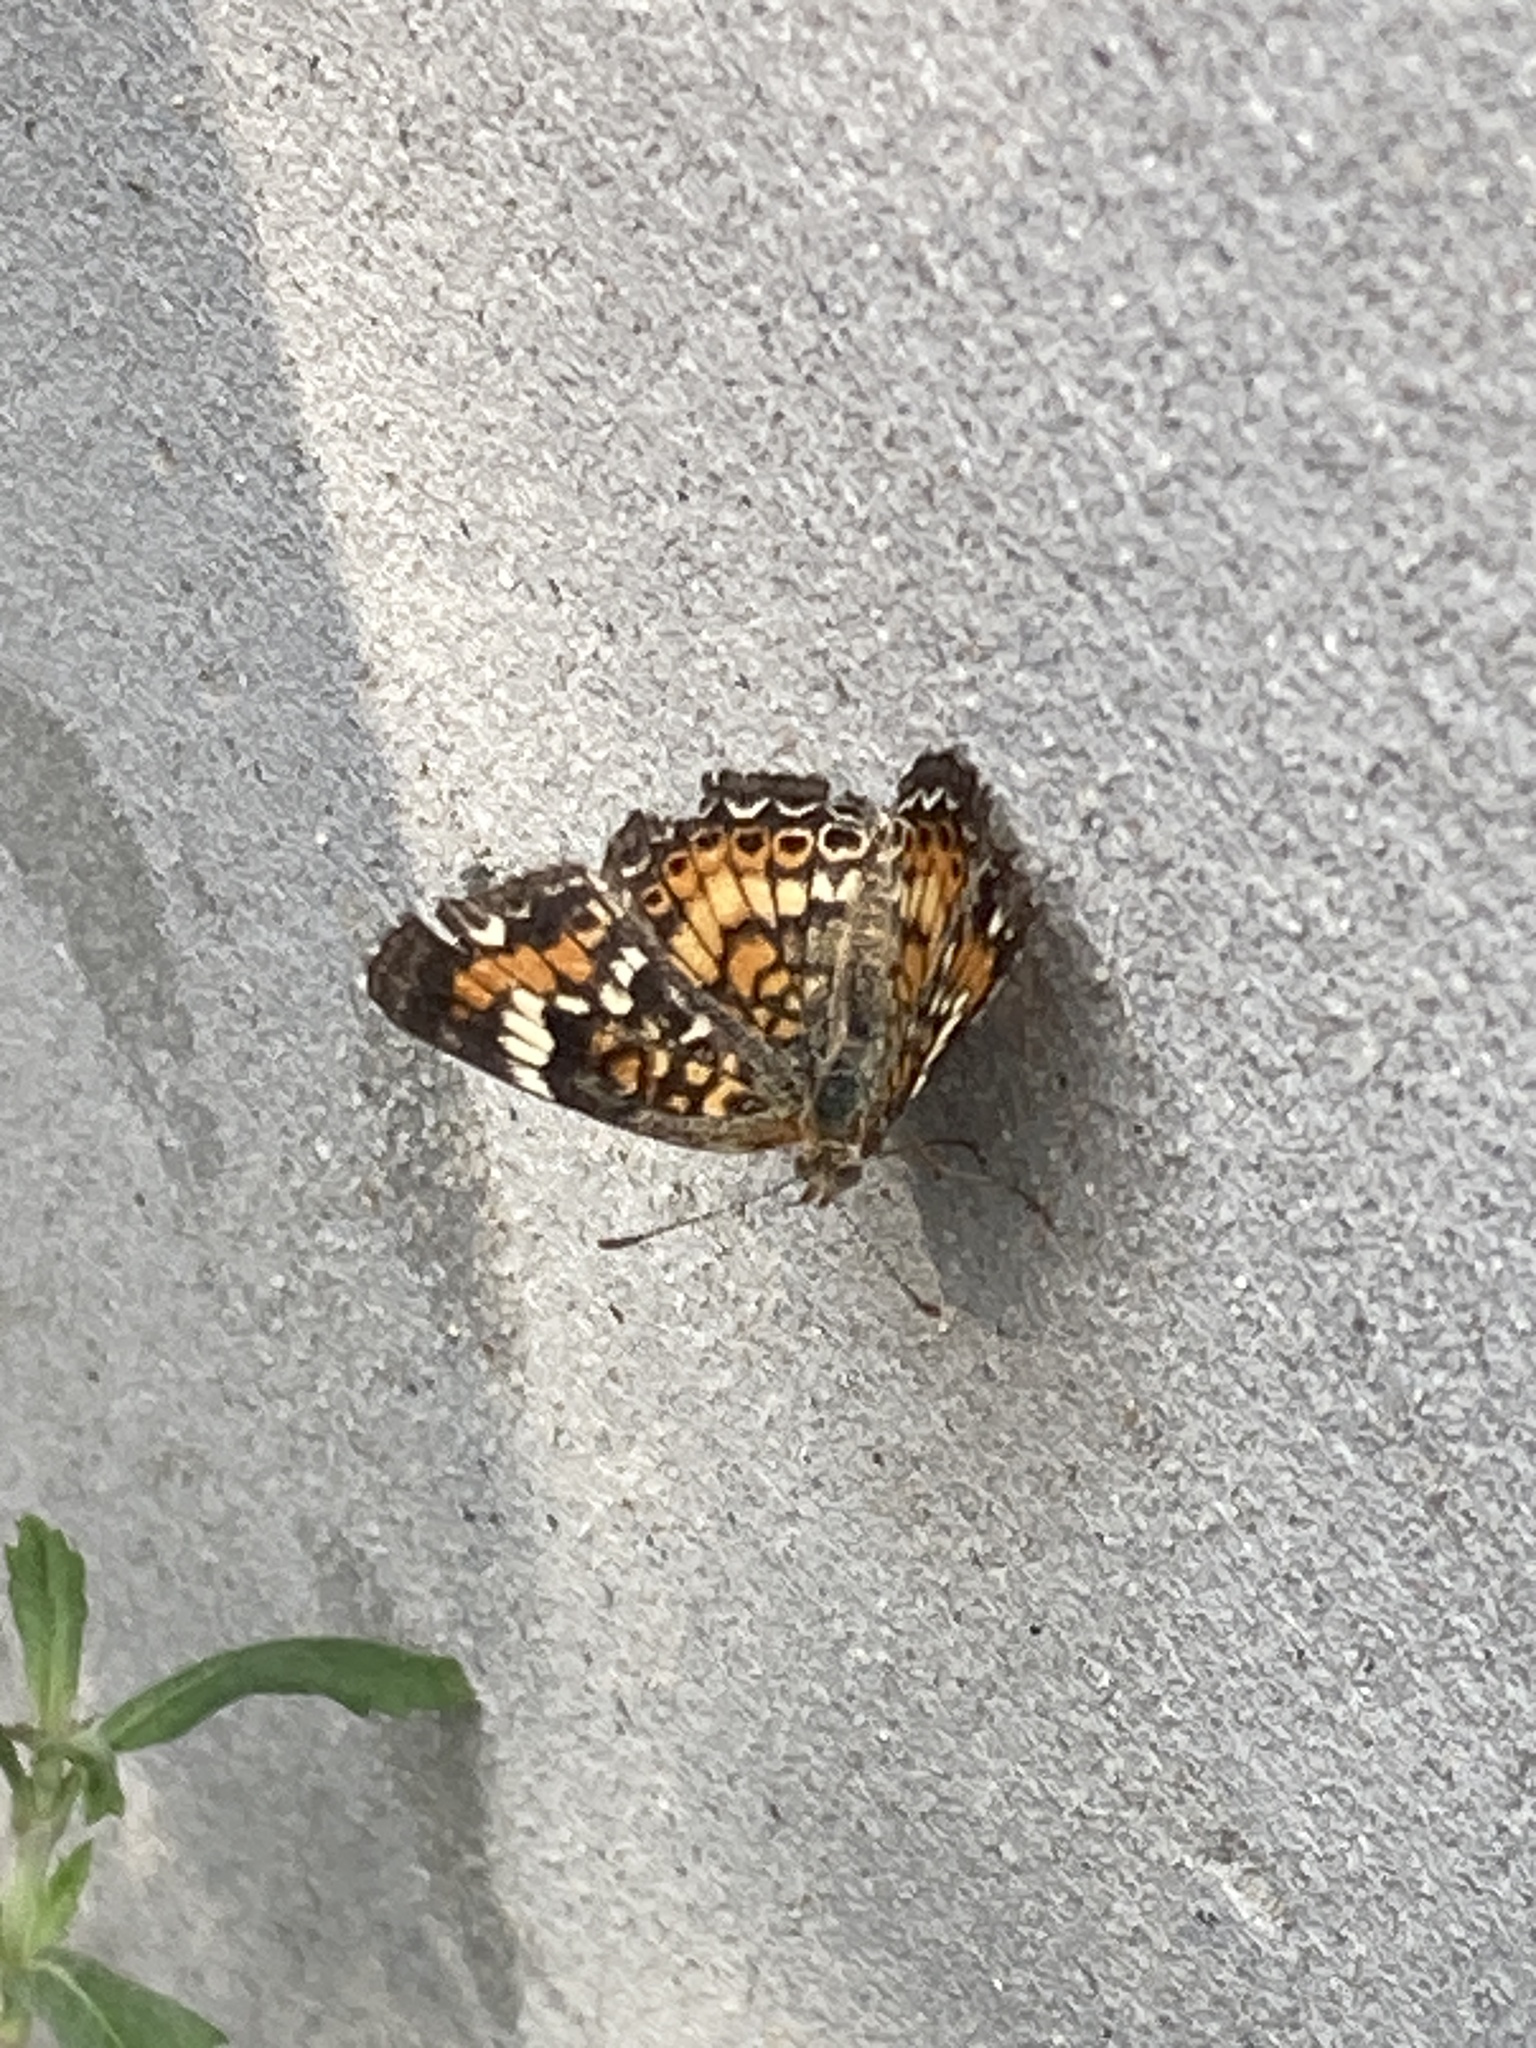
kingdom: Animalia
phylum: Arthropoda
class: Insecta
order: Lepidoptera
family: Nymphalidae
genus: Phyciodes
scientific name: Phyciodes phaon
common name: Phaon crescent
